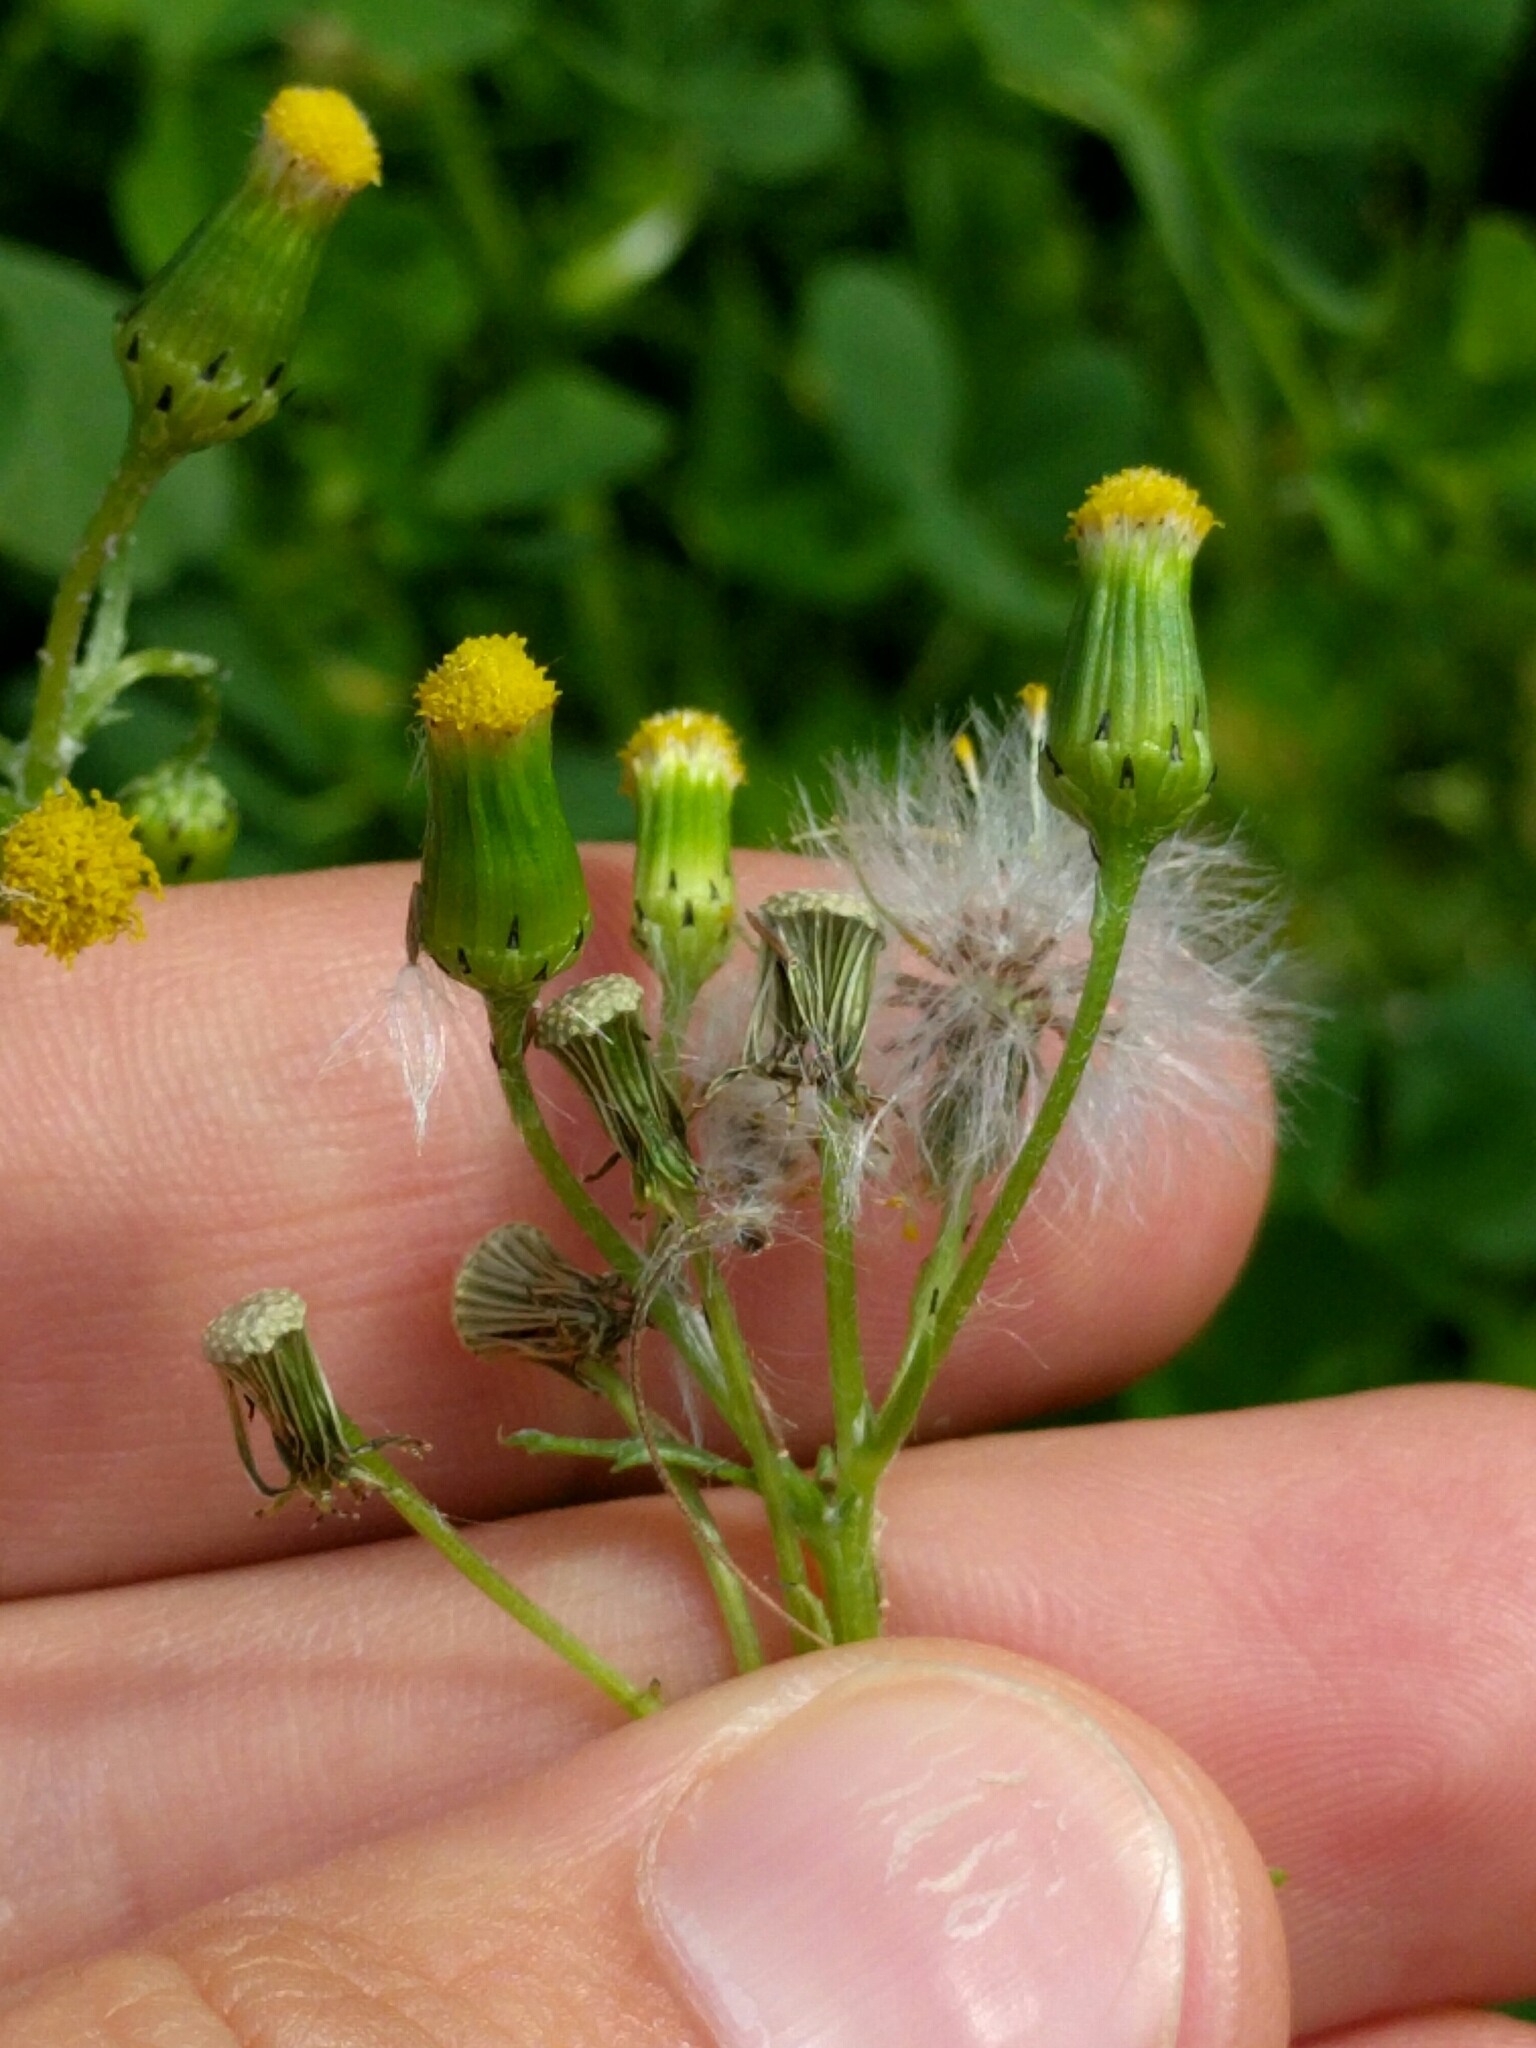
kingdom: Plantae
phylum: Tracheophyta
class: Magnoliopsida
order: Asterales
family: Asteraceae
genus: Senecio
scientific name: Senecio vulgaris
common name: Old-man-in-the-spring
